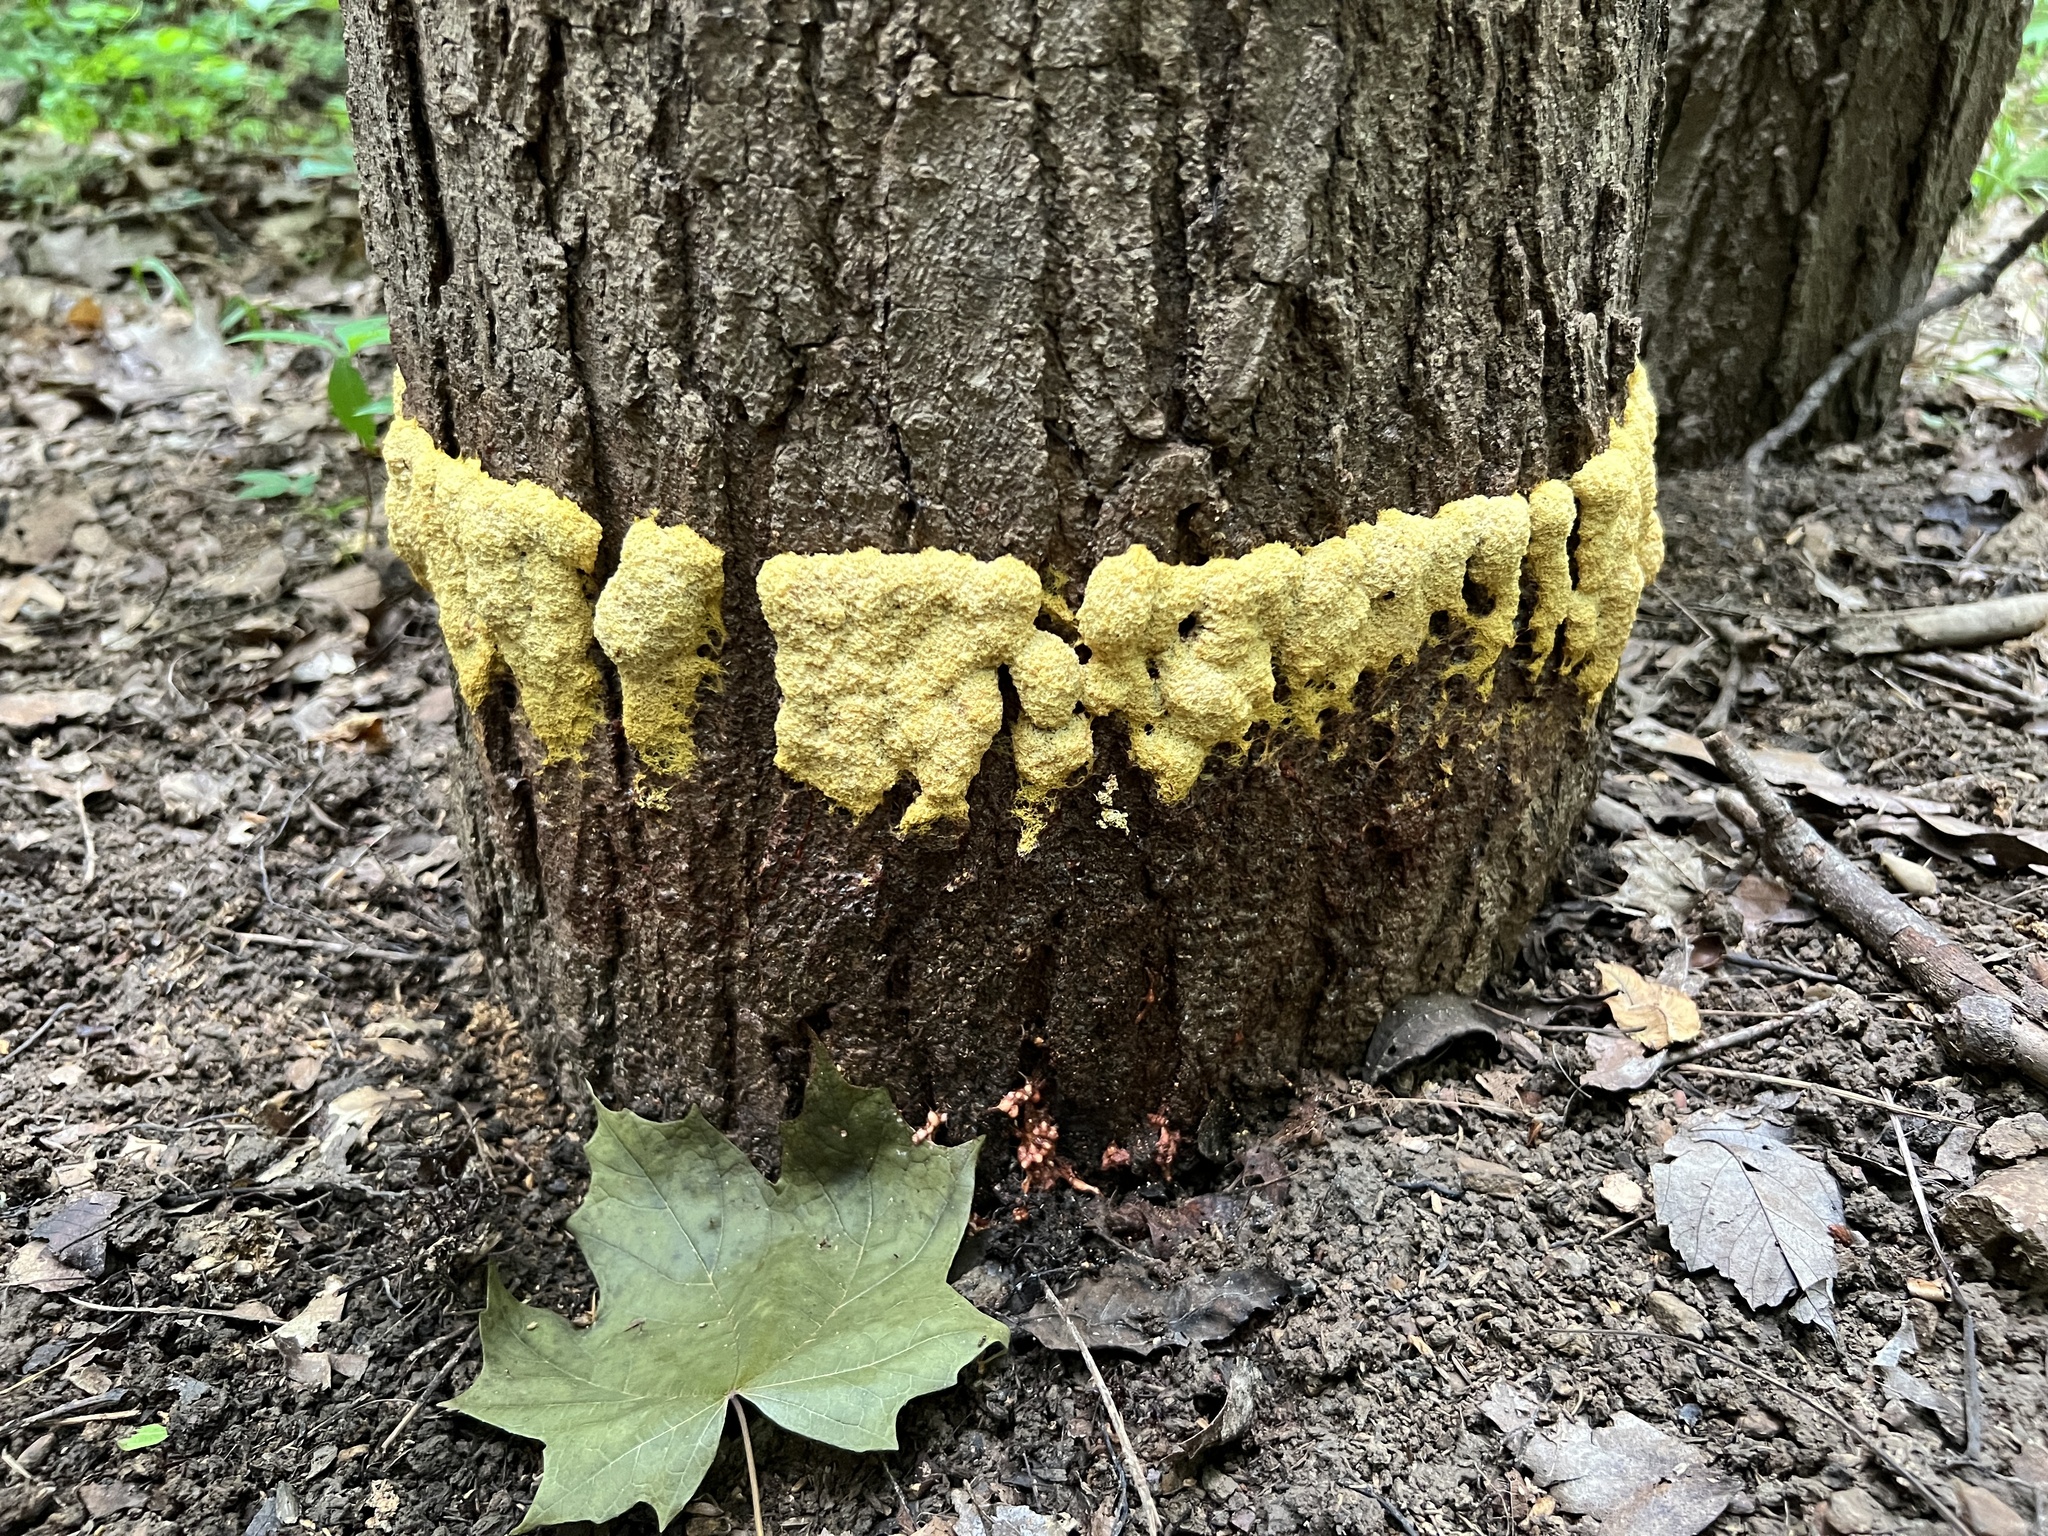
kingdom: Protozoa
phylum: Mycetozoa
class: Myxomycetes
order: Physarales
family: Physaraceae
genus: Fuligo
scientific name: Fuligo septica
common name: Dog vomit slime mold
